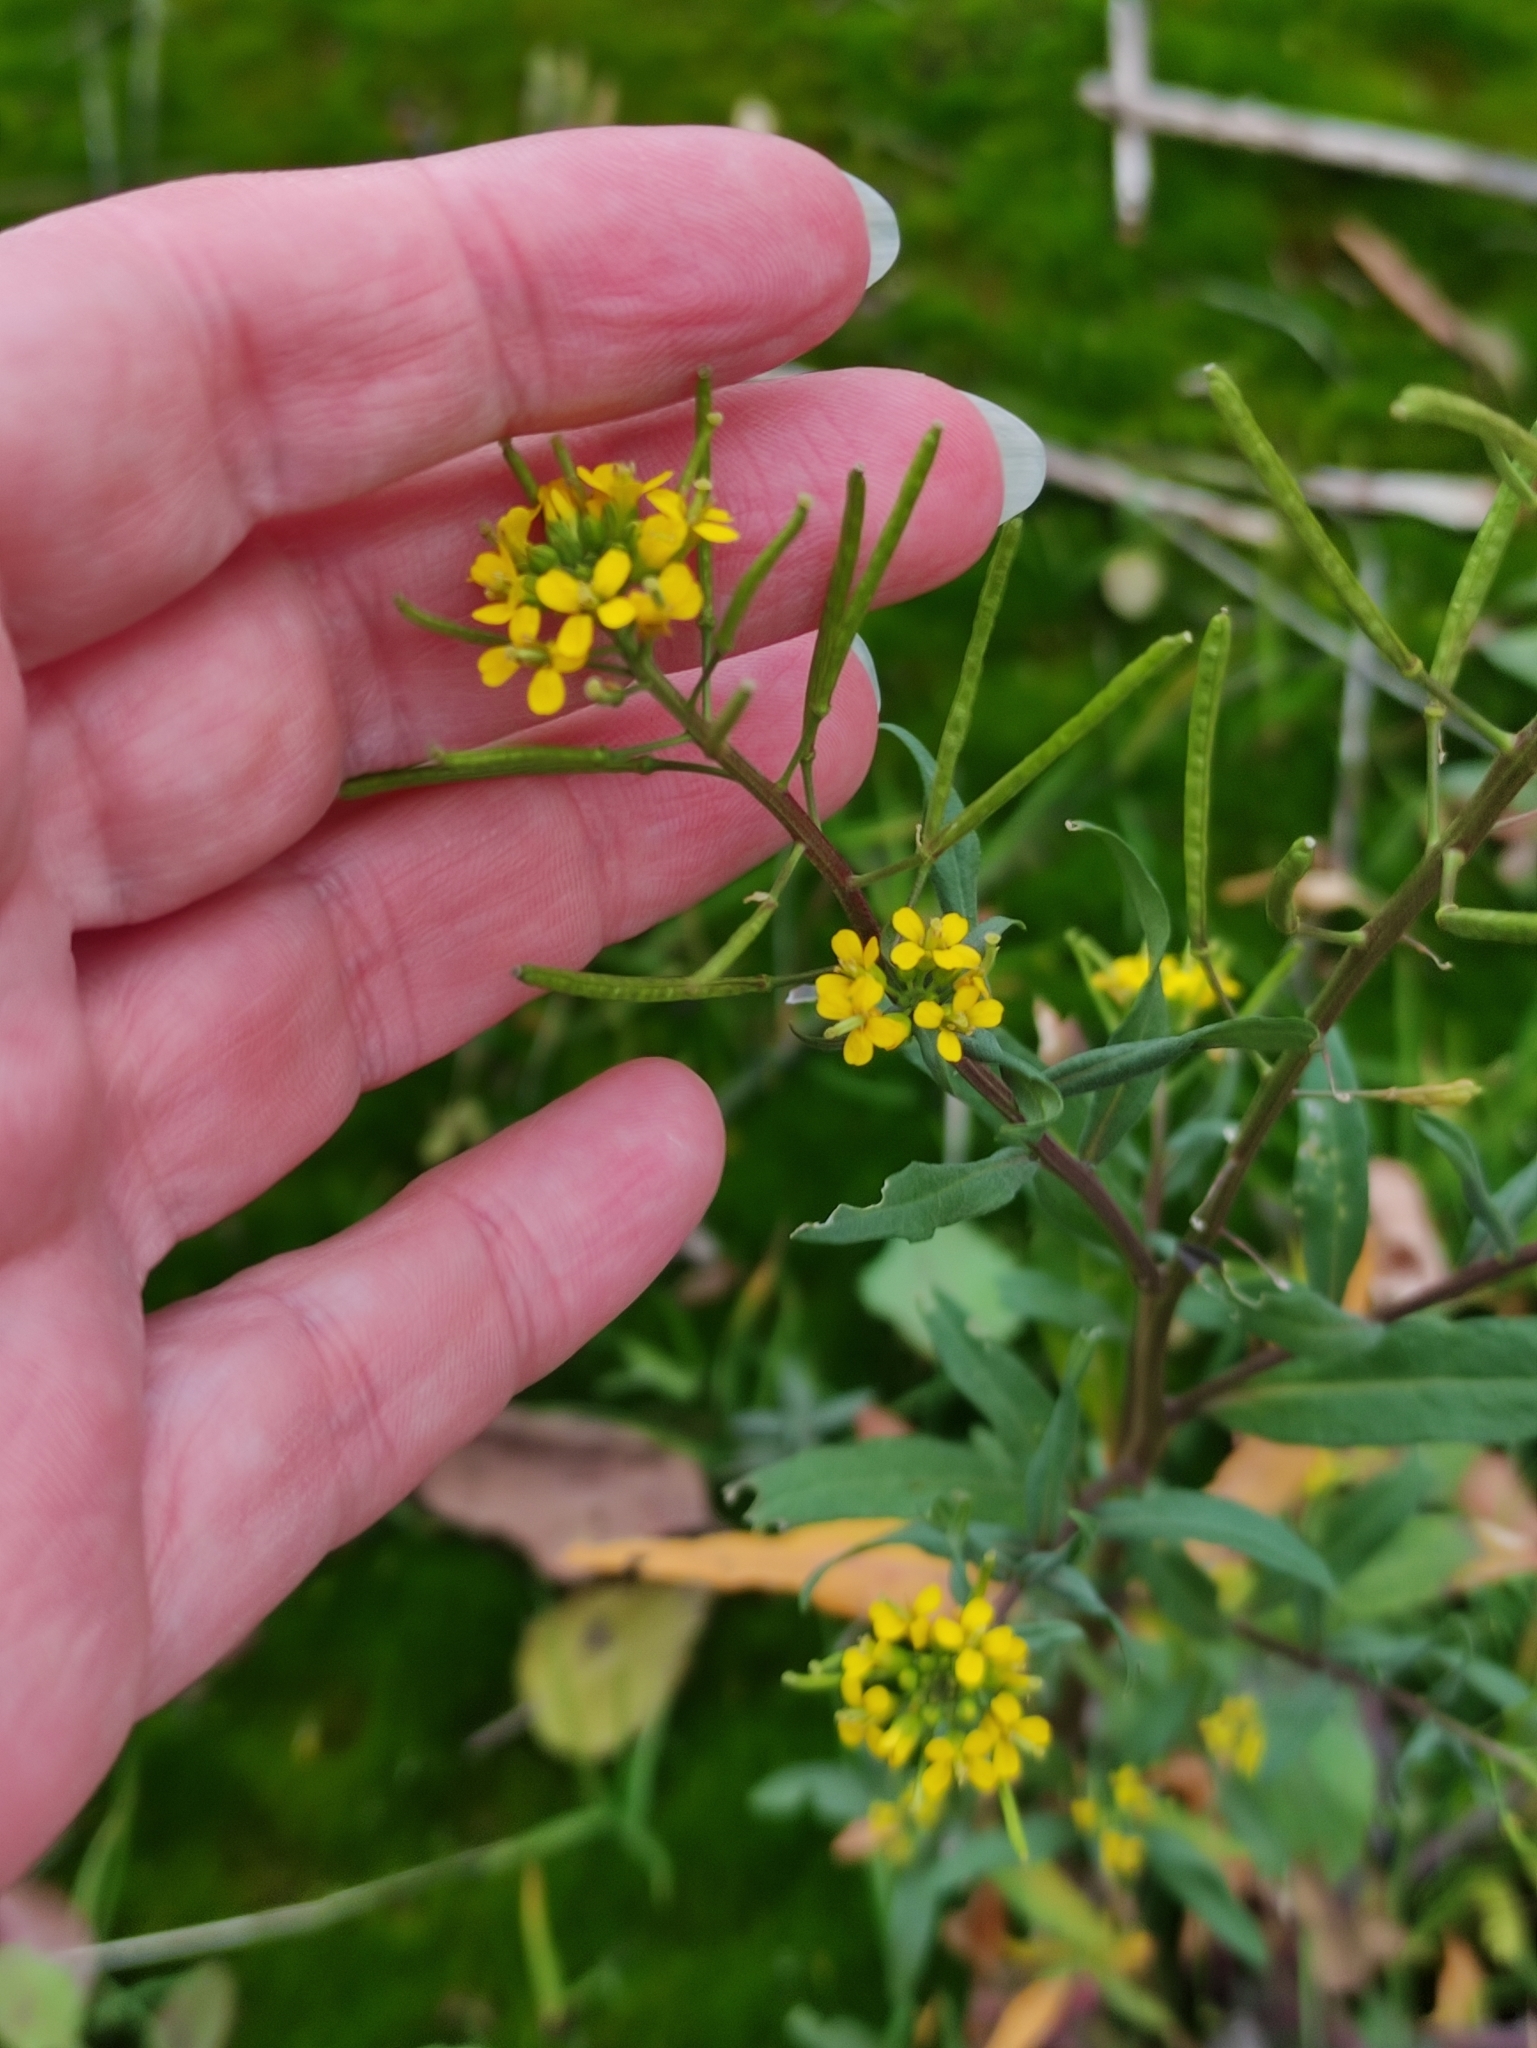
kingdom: Plantae
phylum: Tracheophyta
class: Magnoliopsida
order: Brassicales
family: Brassicaceae
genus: Erysimum
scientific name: Erysimum cheiranthoides
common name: Treacle mustard
